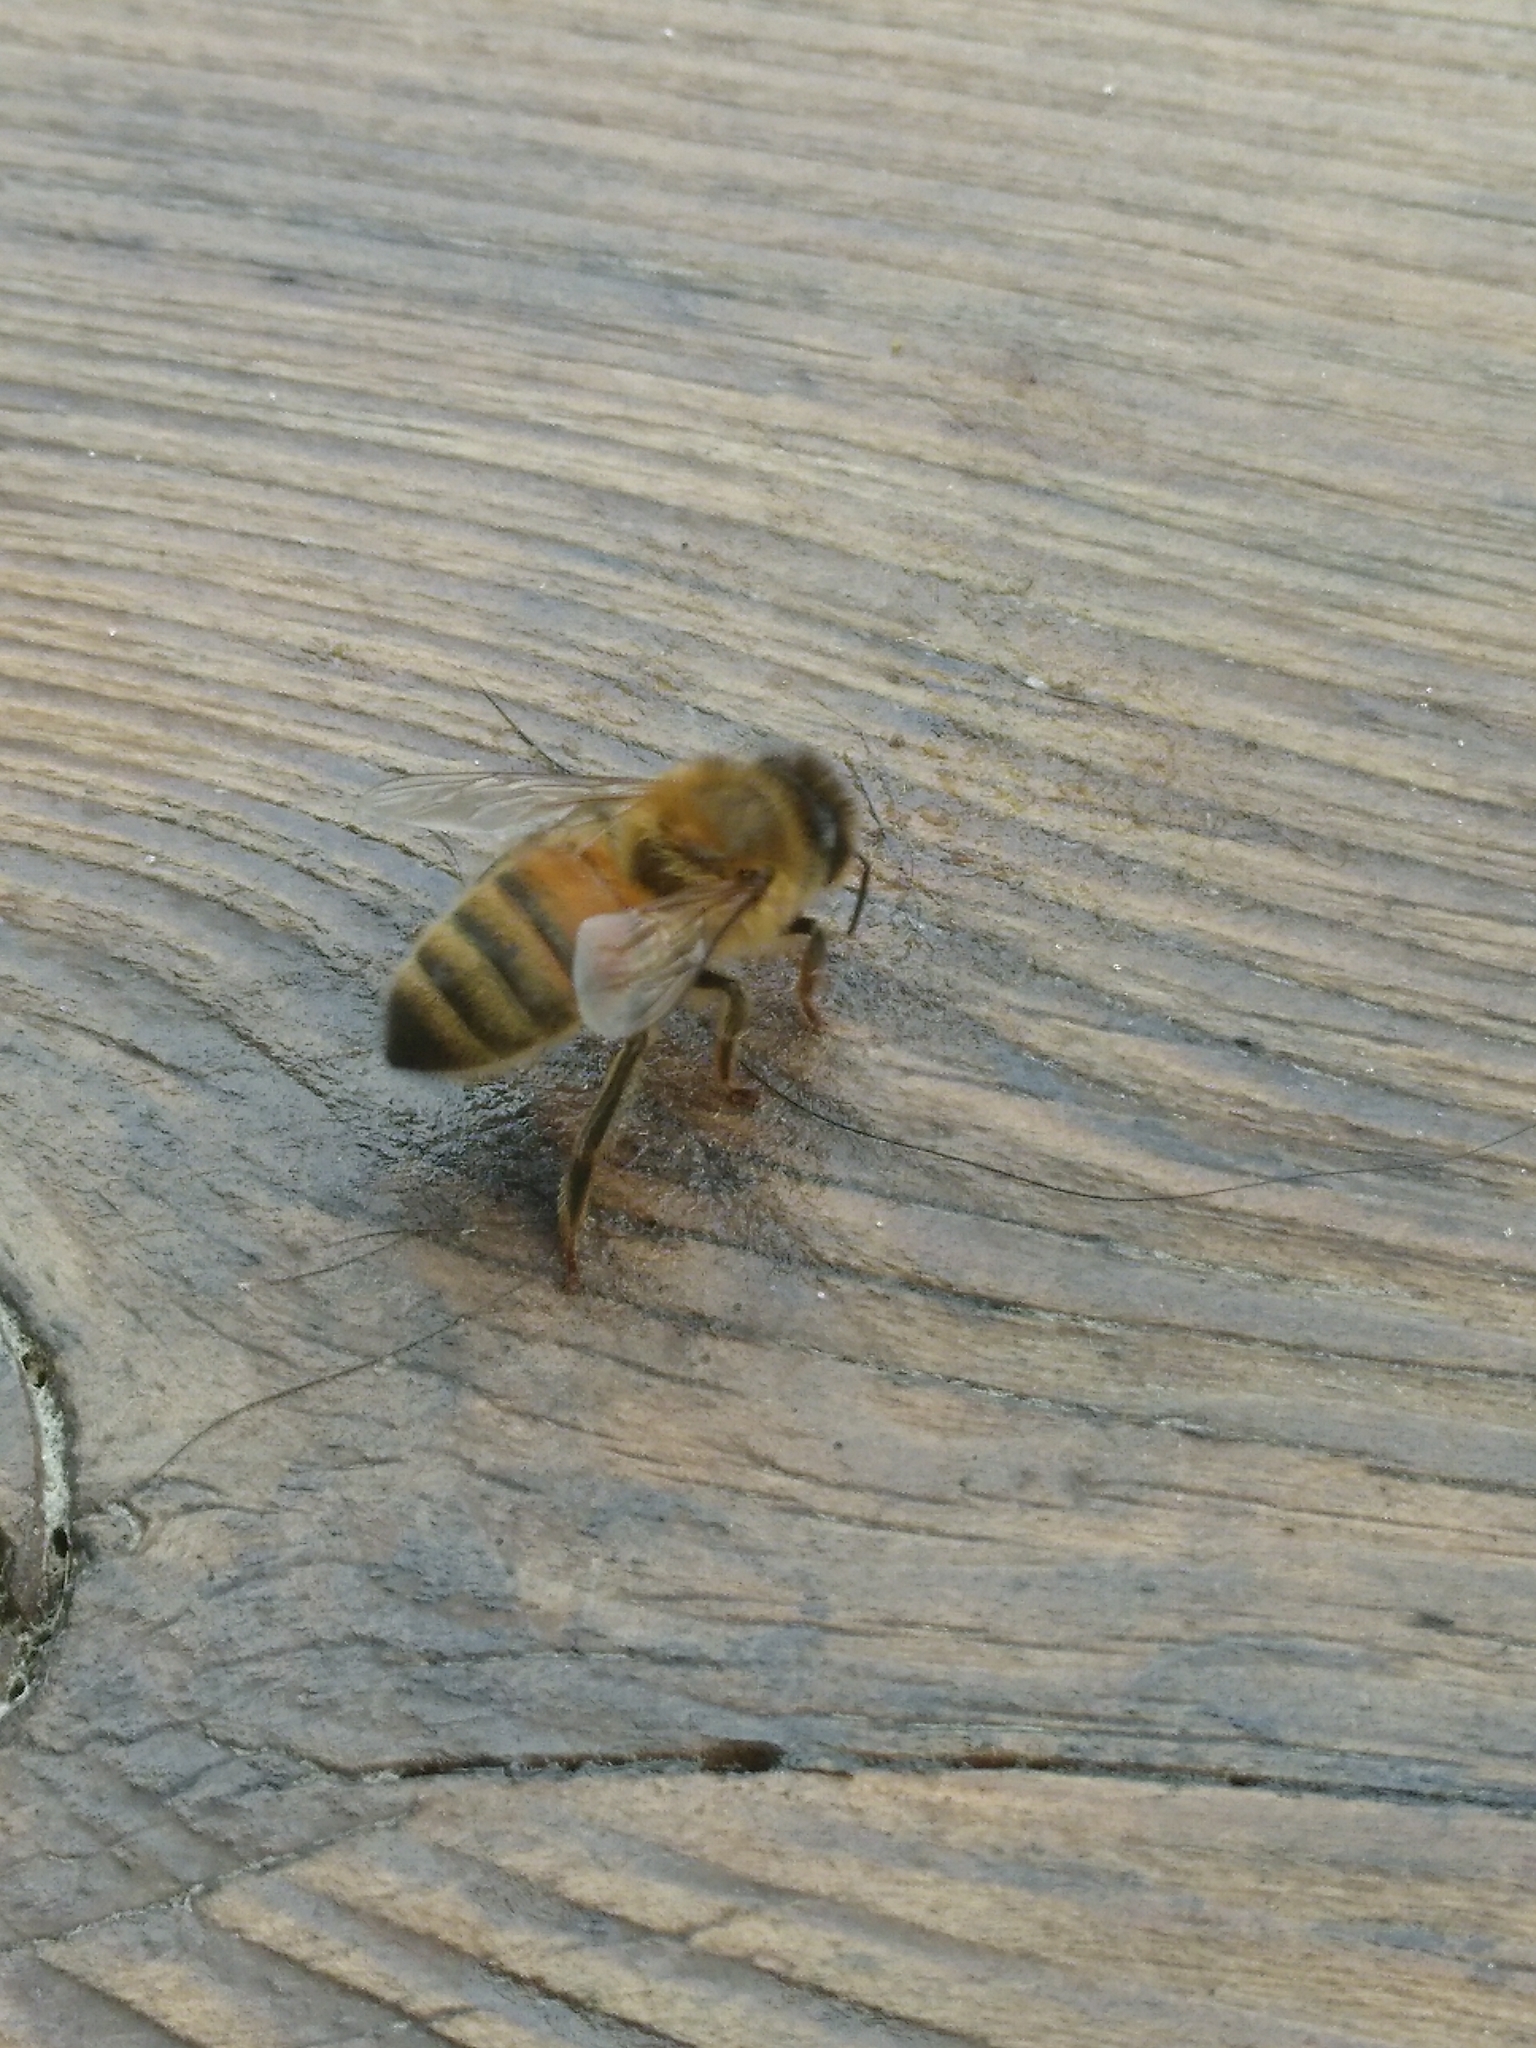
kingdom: Animalia
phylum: Arthropoda
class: Insecta
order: Hymenoptera
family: Apidae
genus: Apis
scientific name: Apis mellifera
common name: Honey bee
